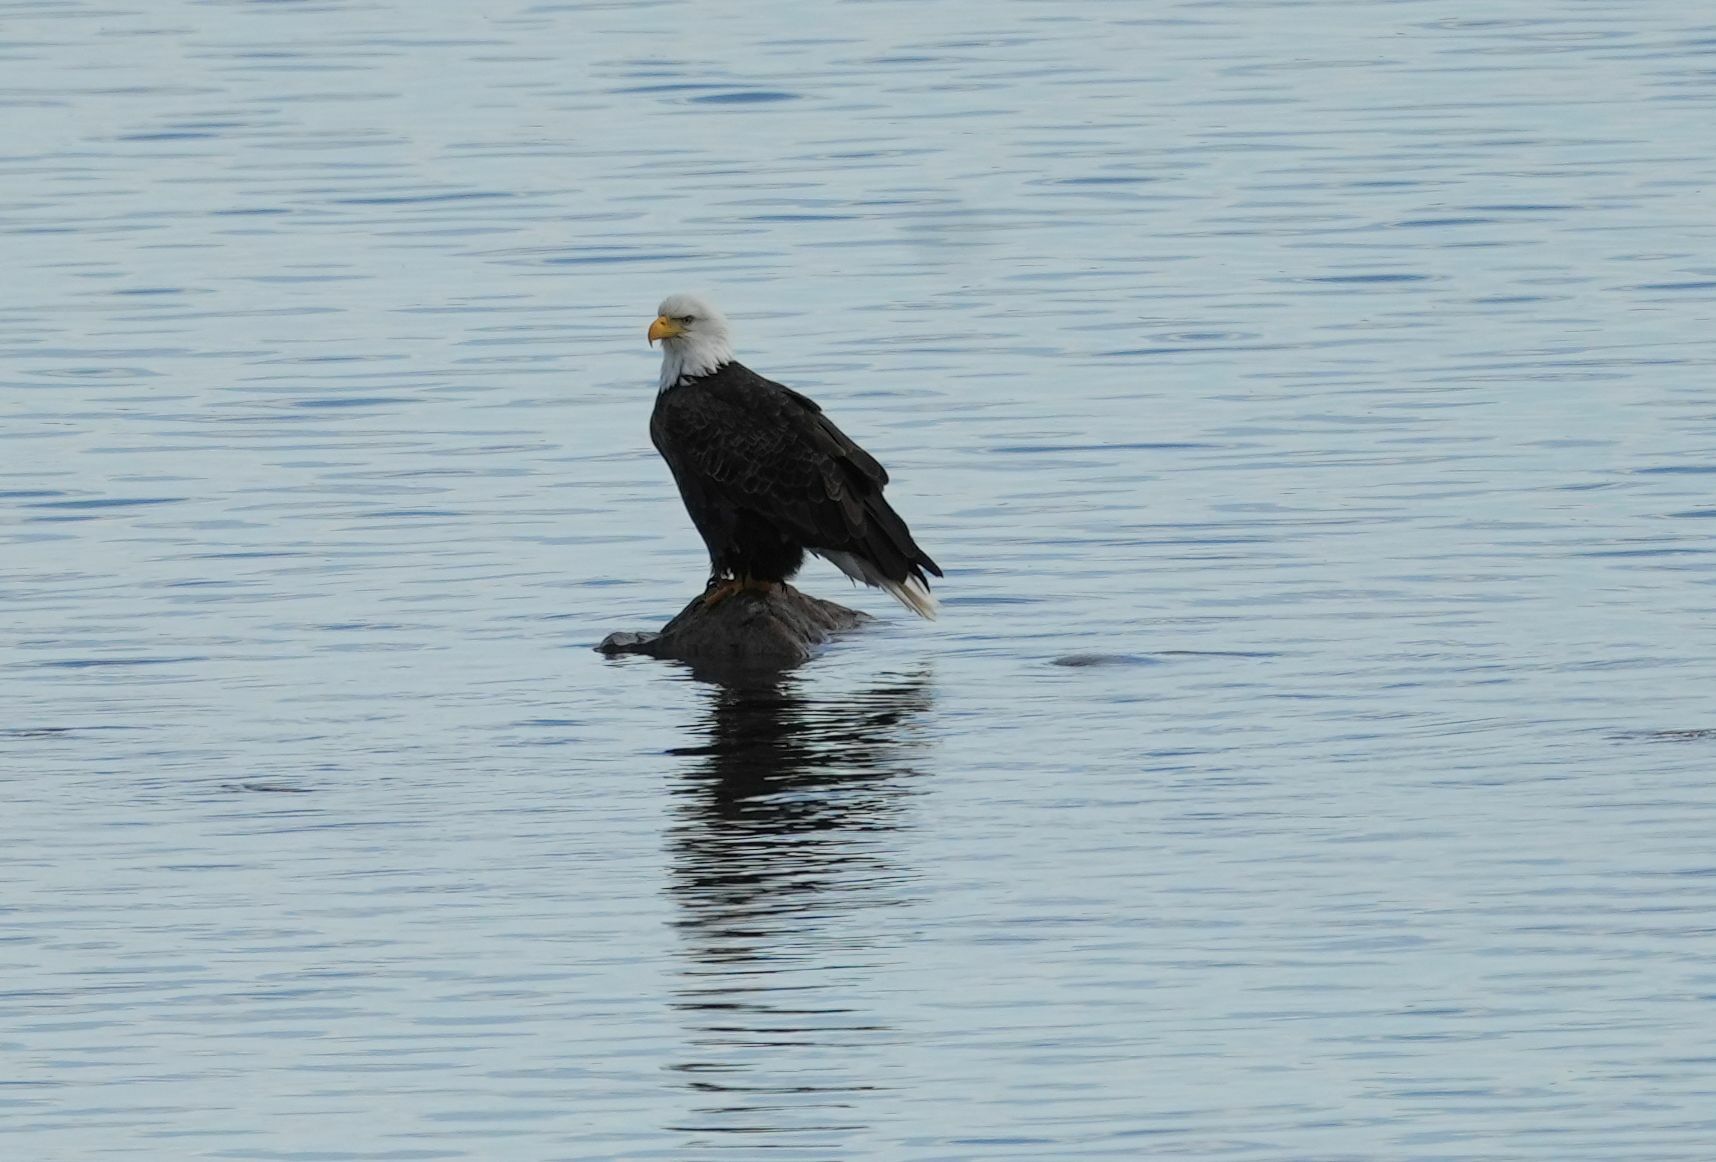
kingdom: Animalia
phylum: Chordata
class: Aves
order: Accipitriformes
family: Accipitridae
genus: Haliaeetus
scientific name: Haliaeetus leucocephalus
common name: Bald eagle
